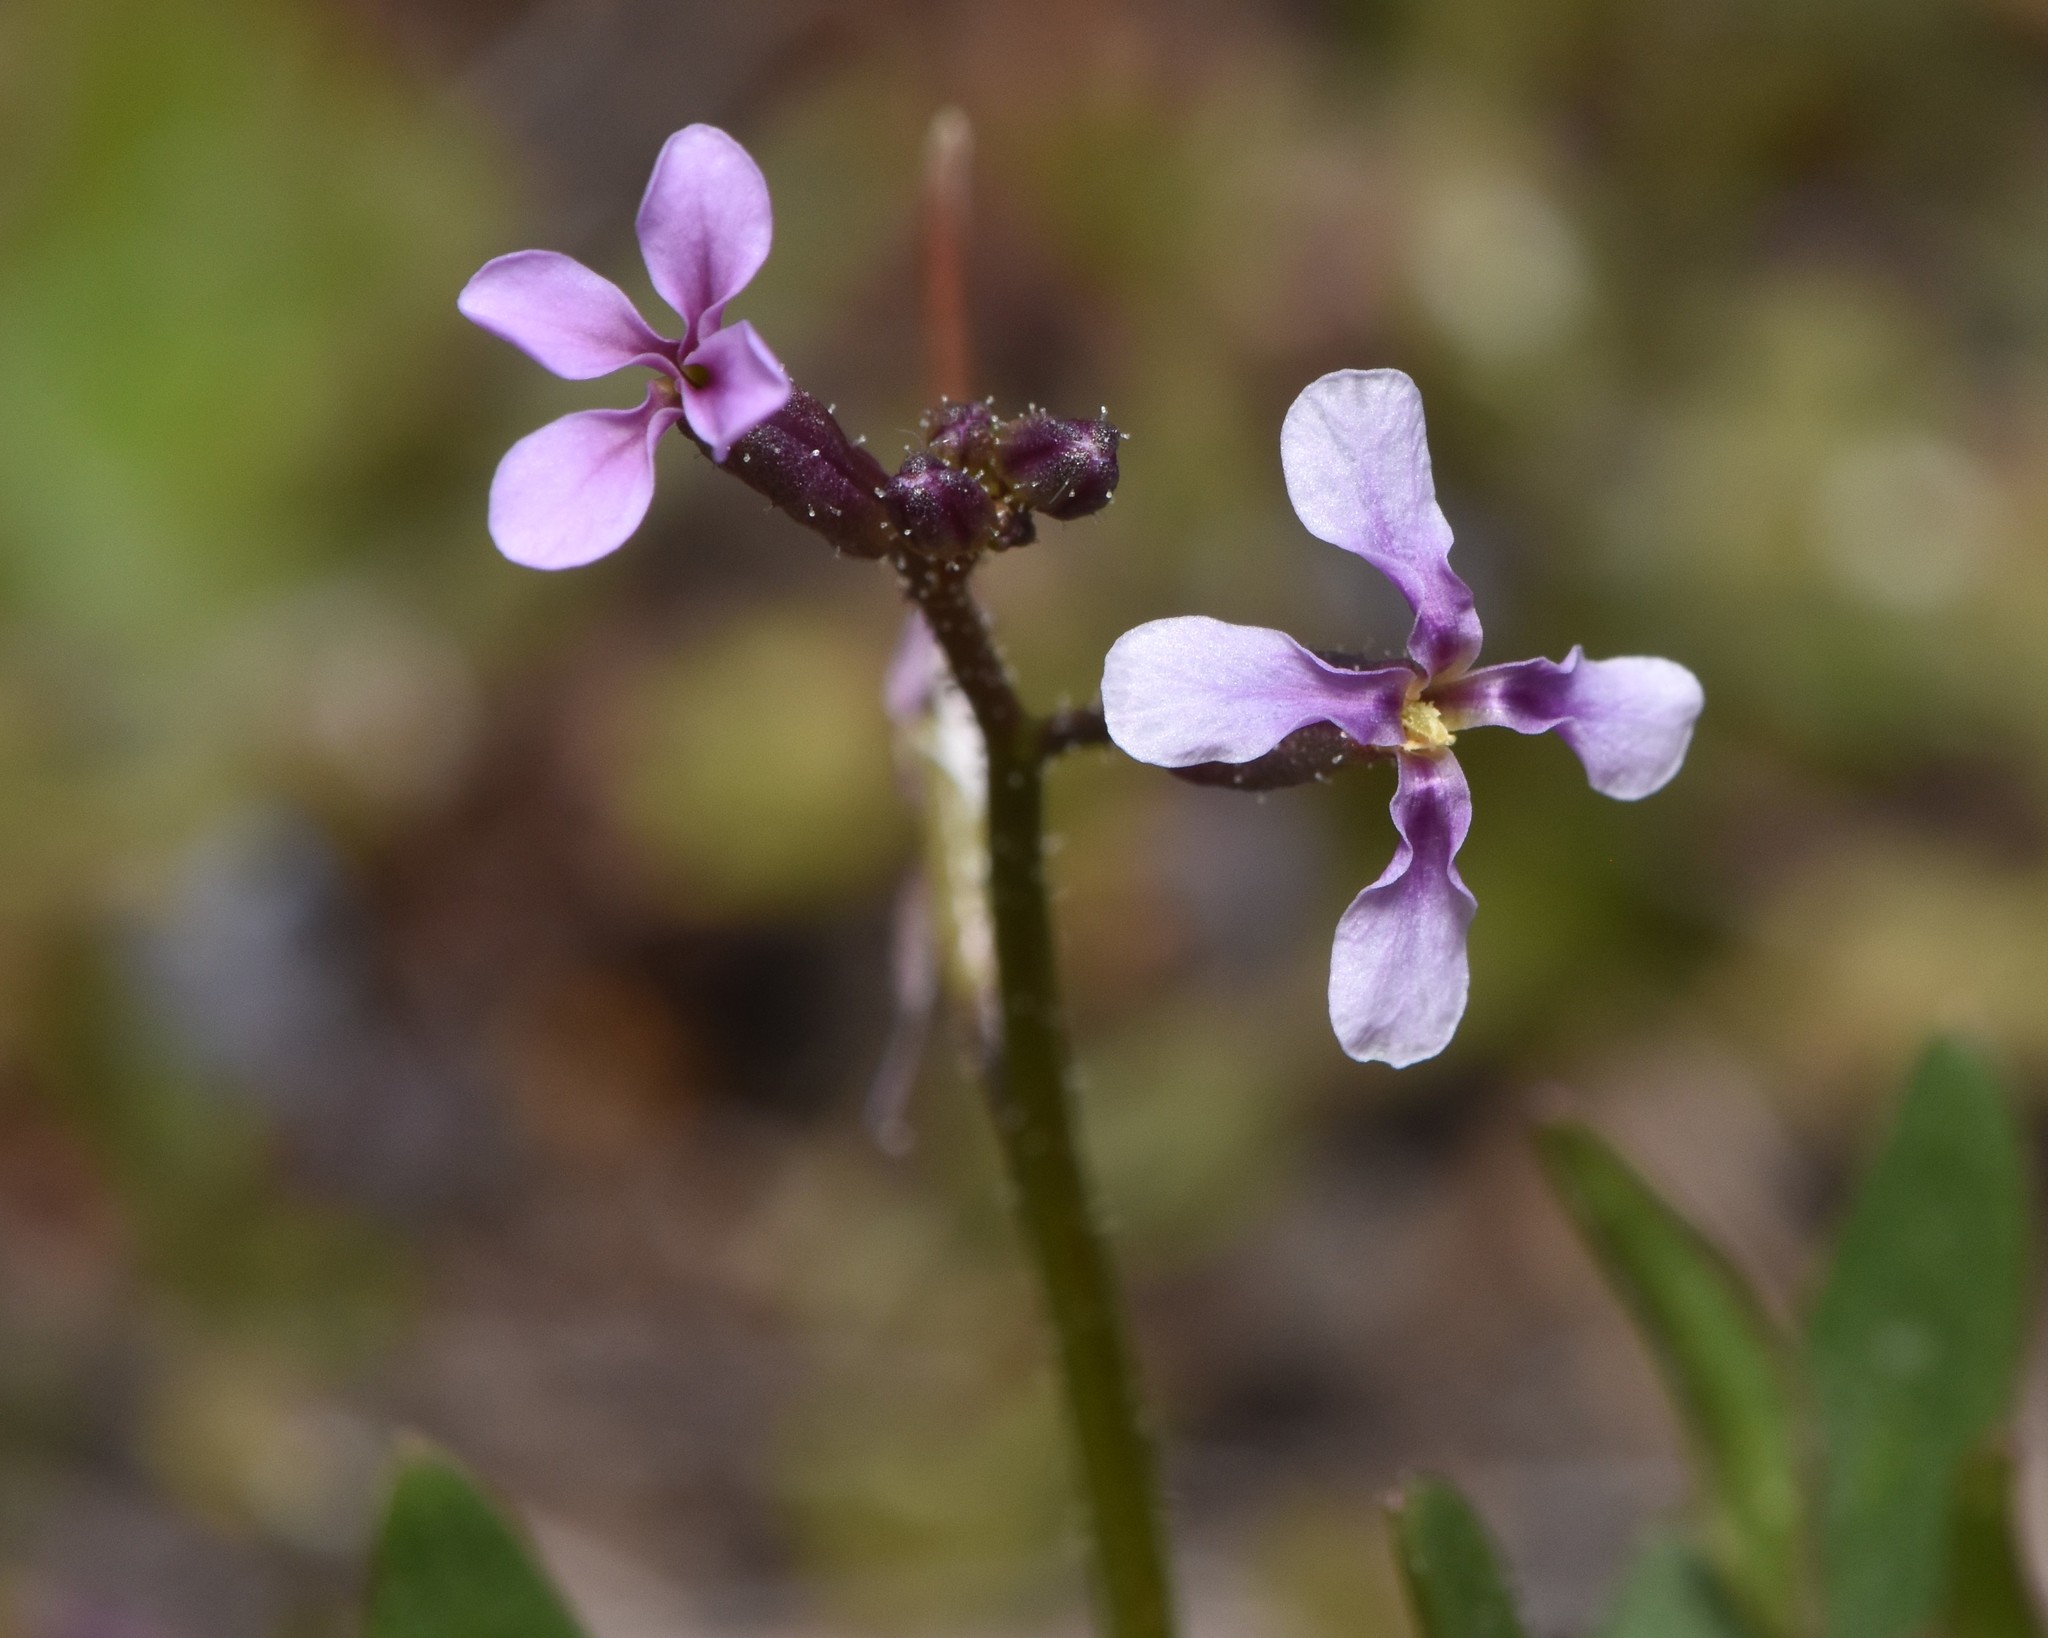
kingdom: Plantae
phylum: Tracheophyta
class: Magnoliopsida
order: Brassicales
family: Brassicaceae
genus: Chorispora
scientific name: Chorispora tenella
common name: Crossflower
